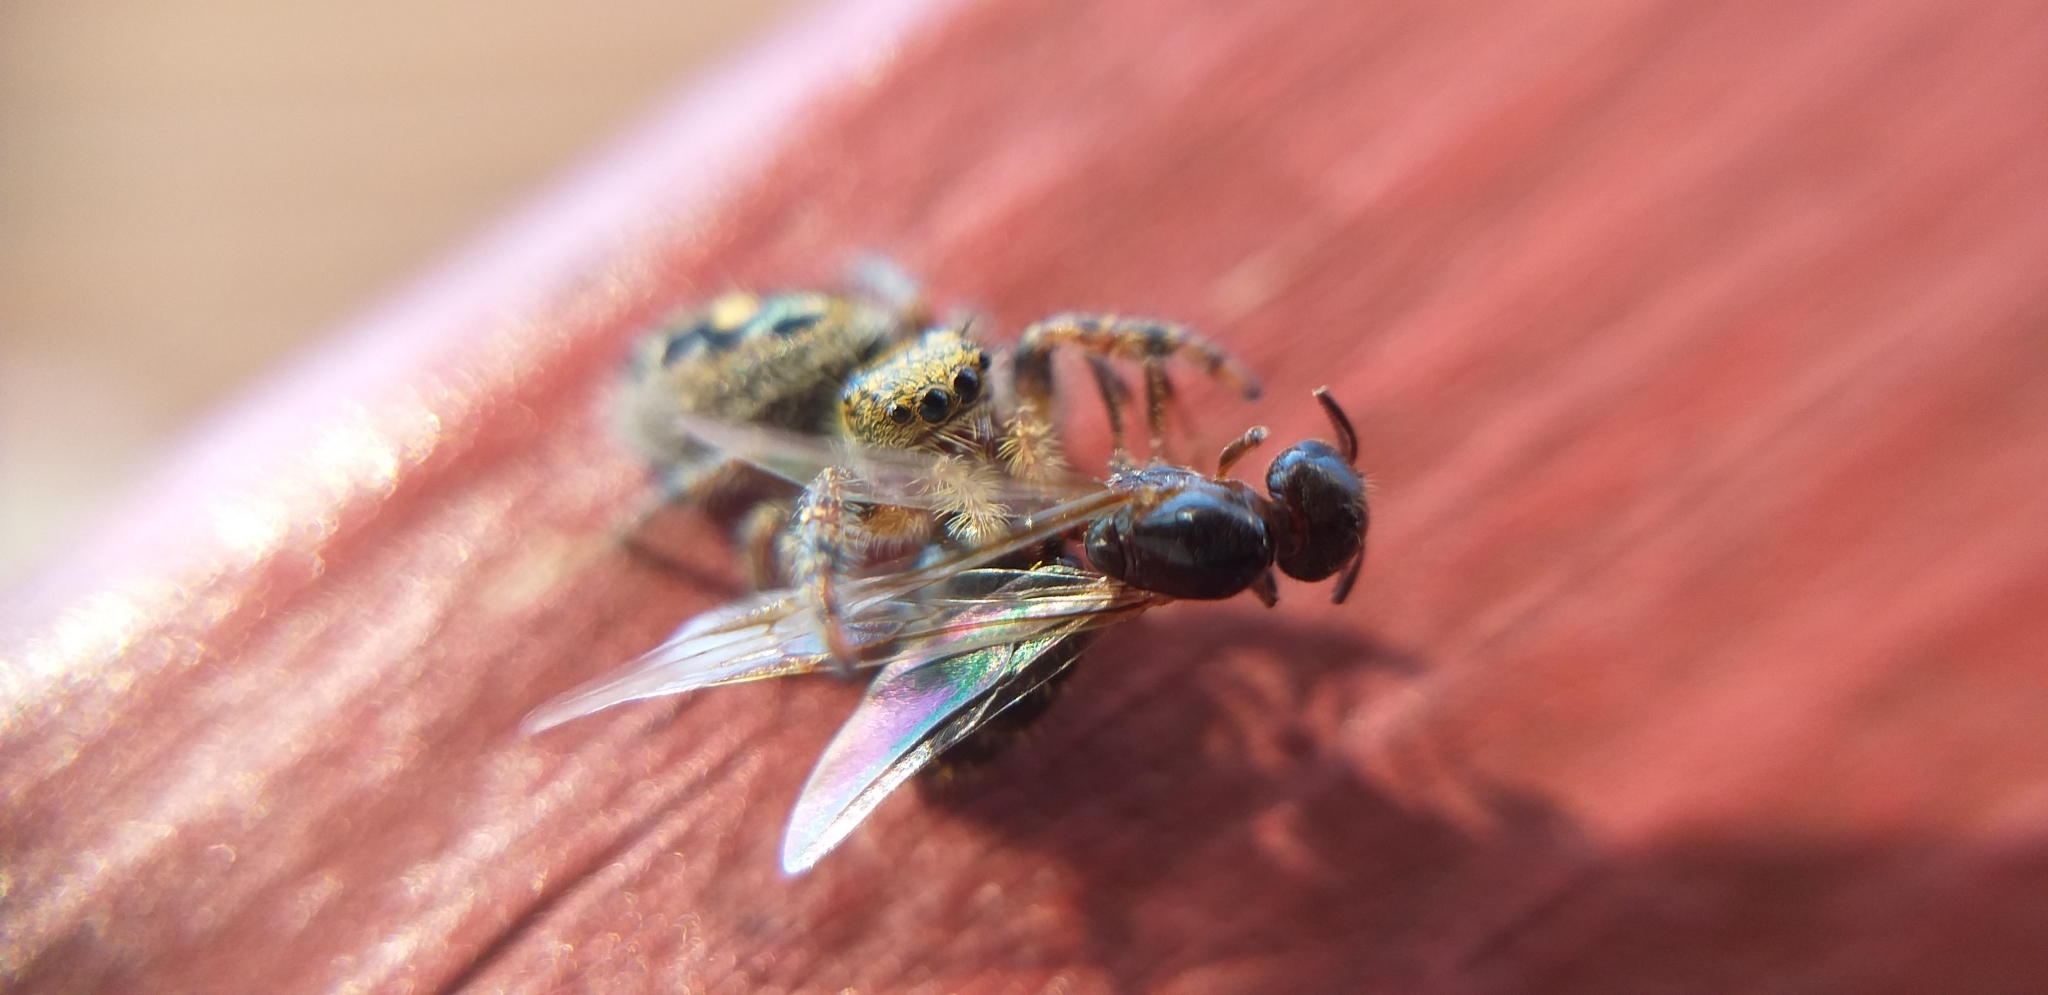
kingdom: Animalia
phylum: Arthropoda
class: Arachnida
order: Araneae
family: Salticidae
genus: Phidippus
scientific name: Phidippus audax
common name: Bold jumper
